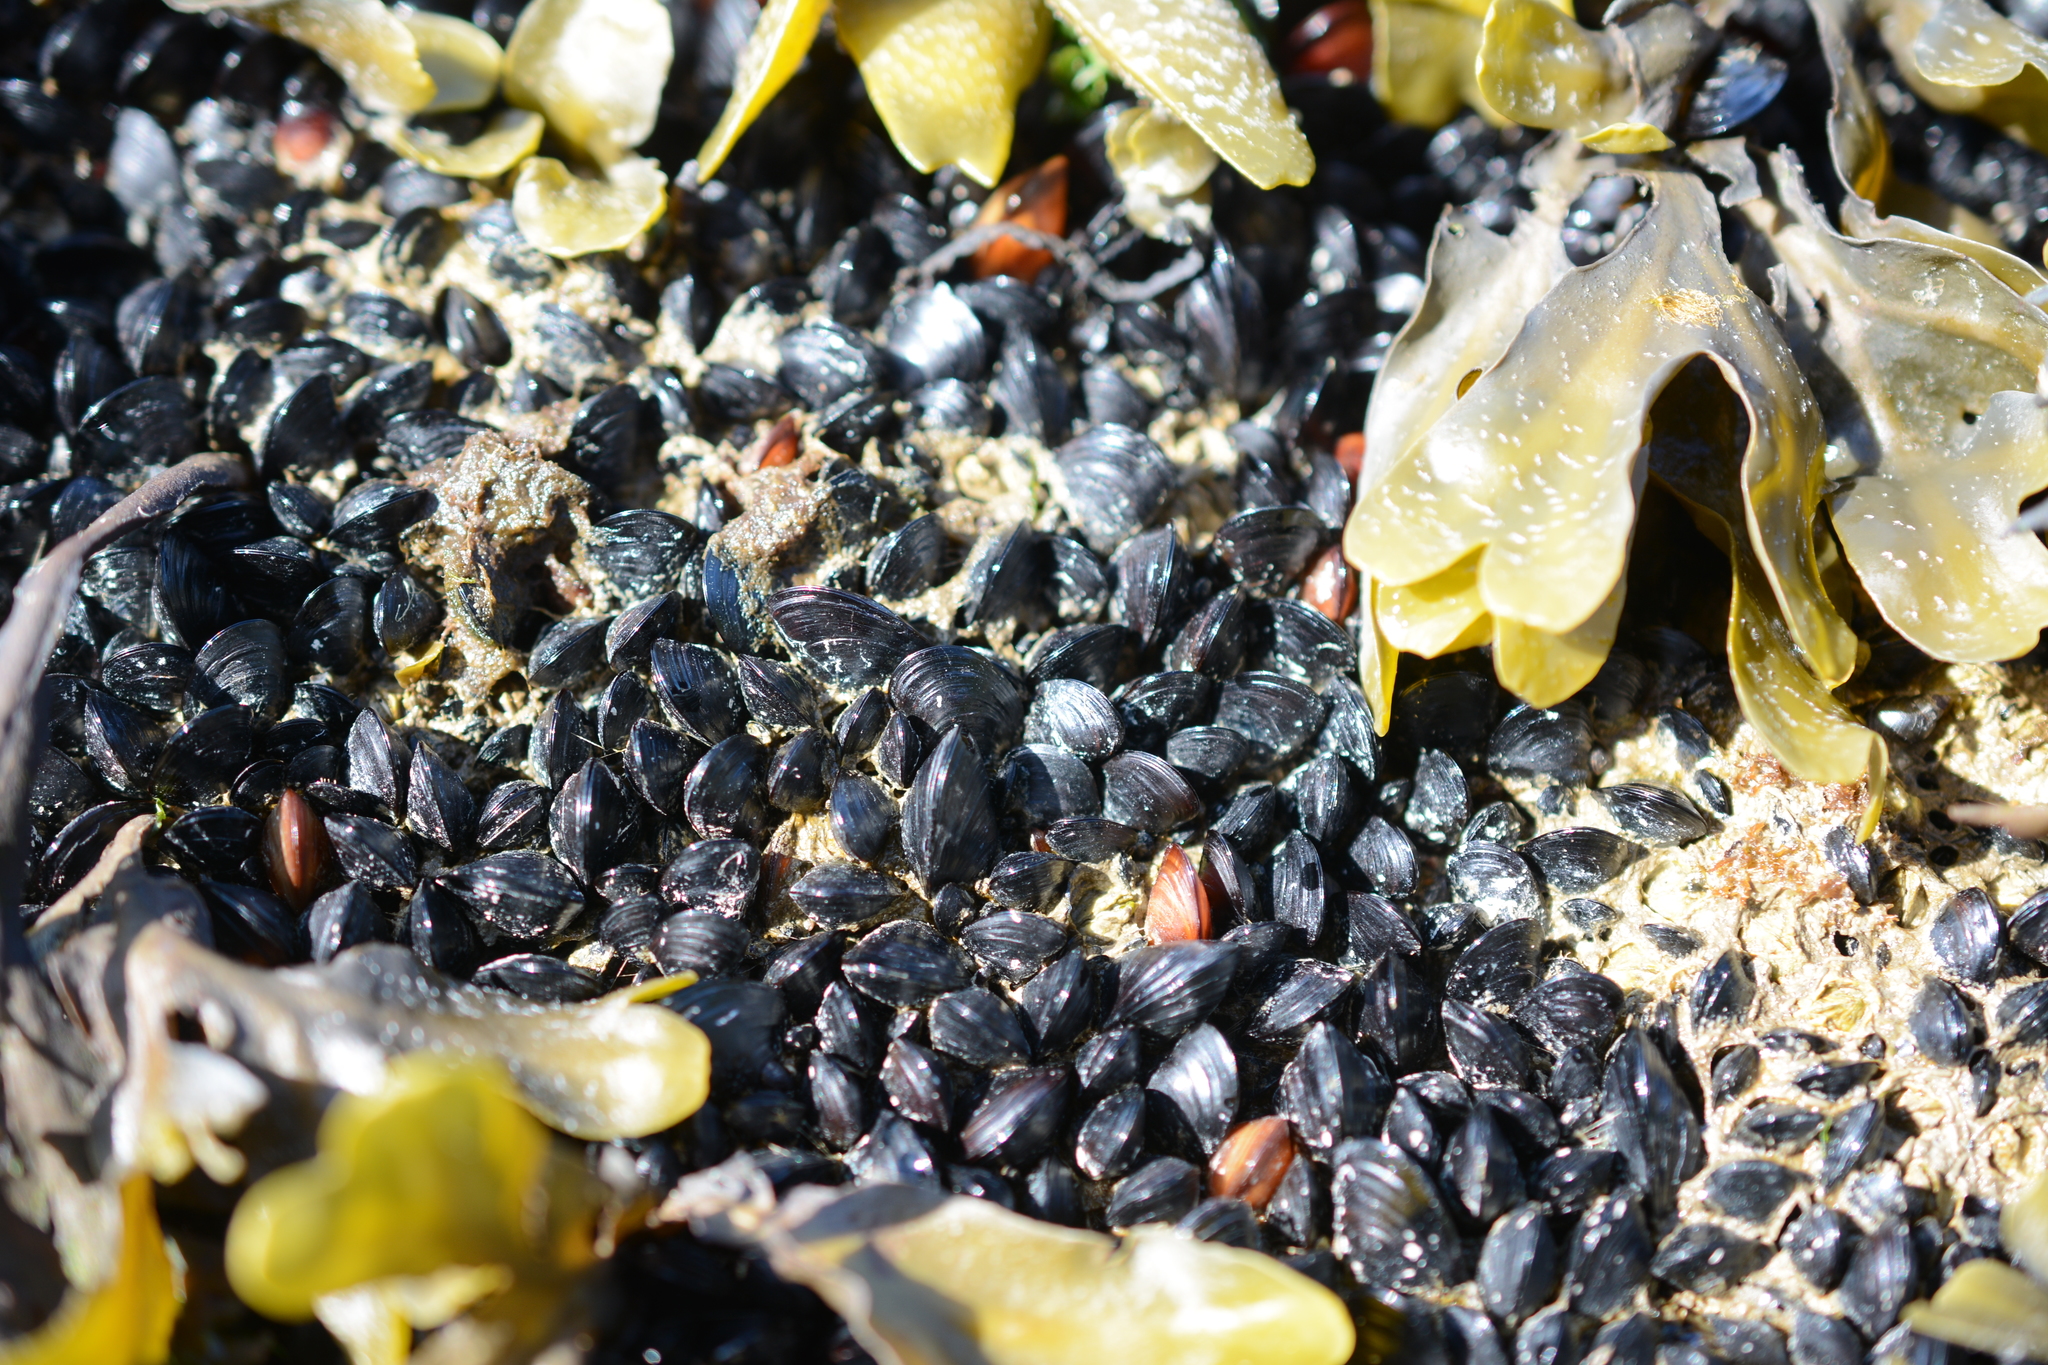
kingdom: Animalia
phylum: Mollusca
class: Bivalvia
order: Mytilida
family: Mytilidae
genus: Mytilus
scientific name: Mytilus
